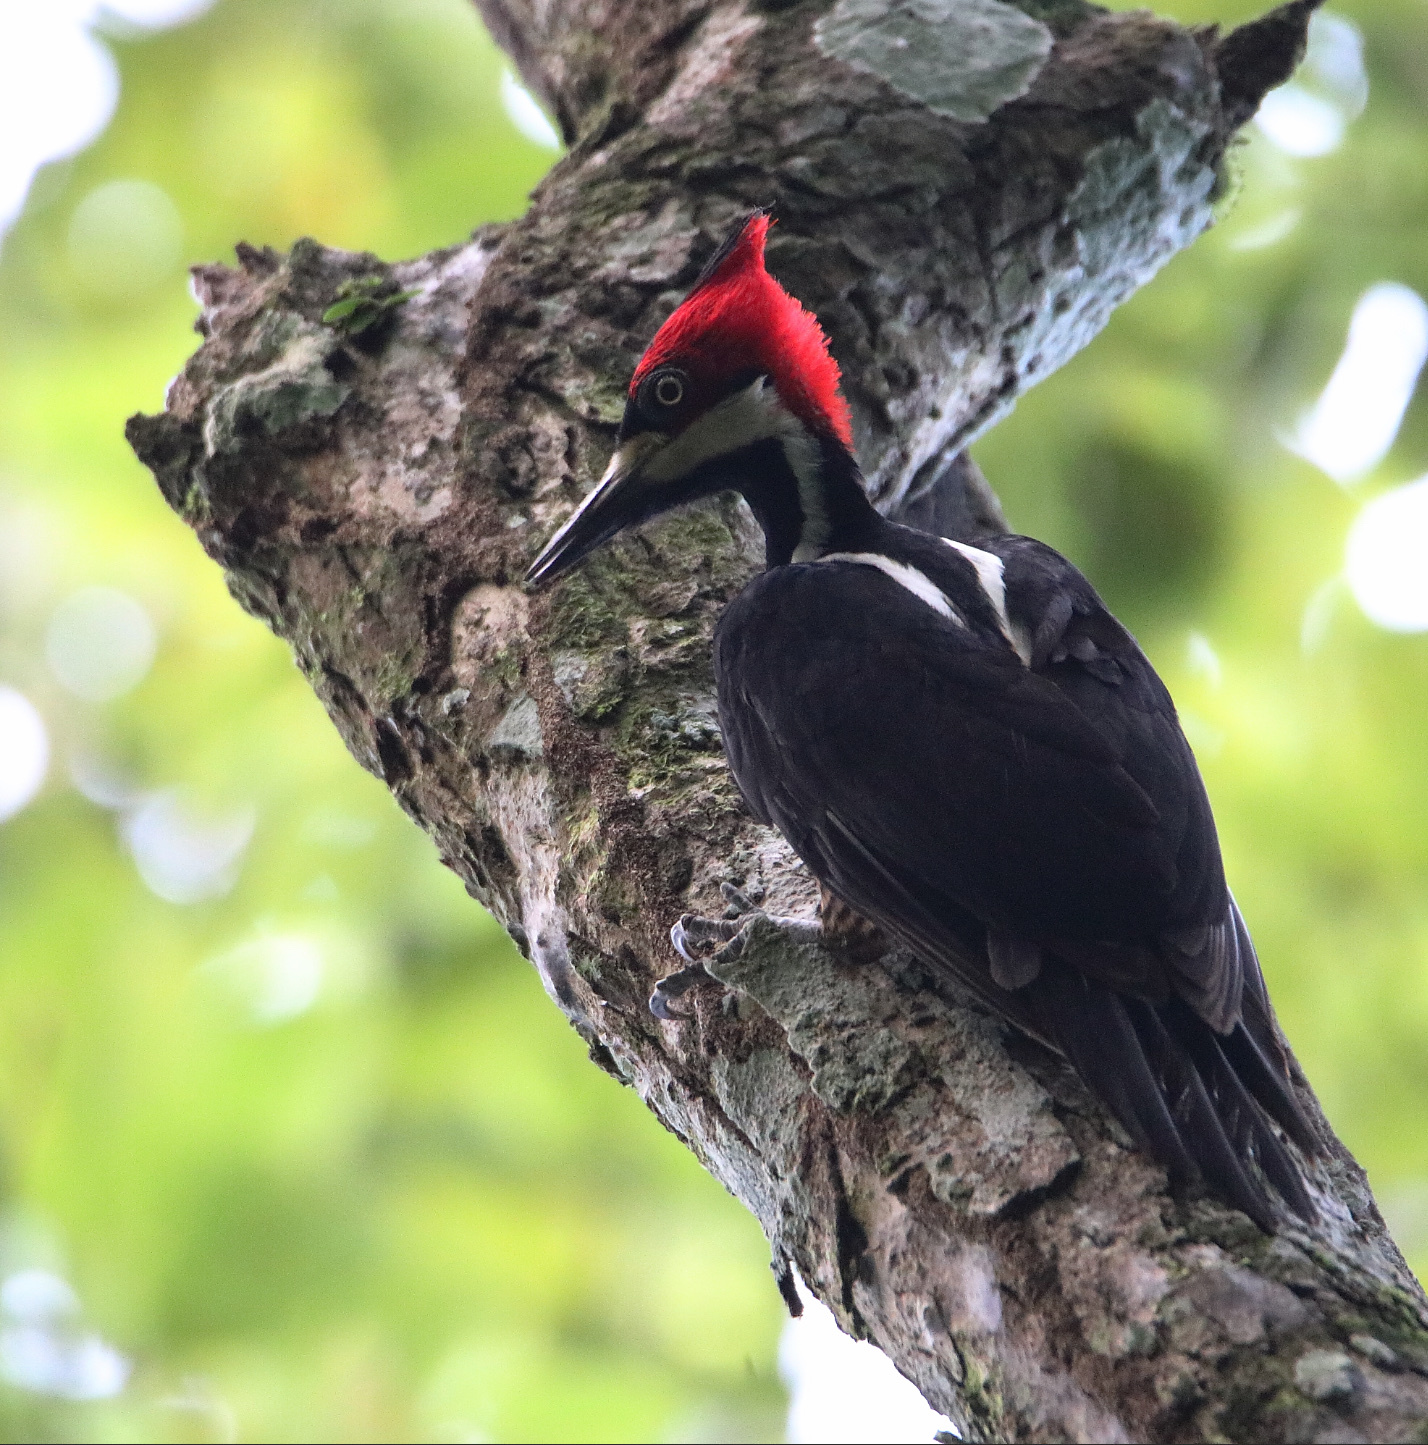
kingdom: Animalia
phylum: Chordata
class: Aves
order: Piciformes
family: Picidae
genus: Campephilus
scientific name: Campephilus melanoleucos
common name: Crimson-crested woodpecker
